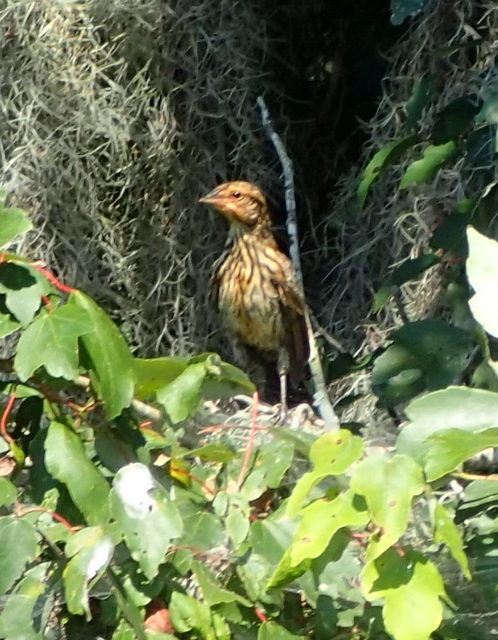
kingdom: Animalia
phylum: Chordata
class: Aves
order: Passeriformes
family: Icteridae
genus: Agelaius
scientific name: Agelaius phoeniceus
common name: Red-winged blackbird
